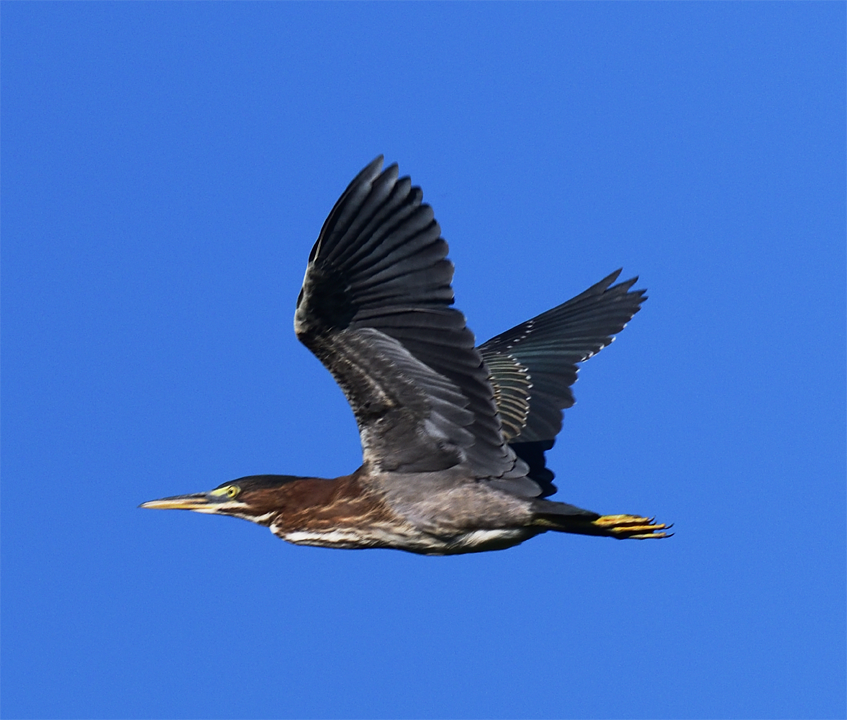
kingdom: Animalia
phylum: Chordata
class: Aves
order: Pelecaniformes
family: Ardeidae
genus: Butorides
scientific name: Butorides virescens
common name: Green heron
